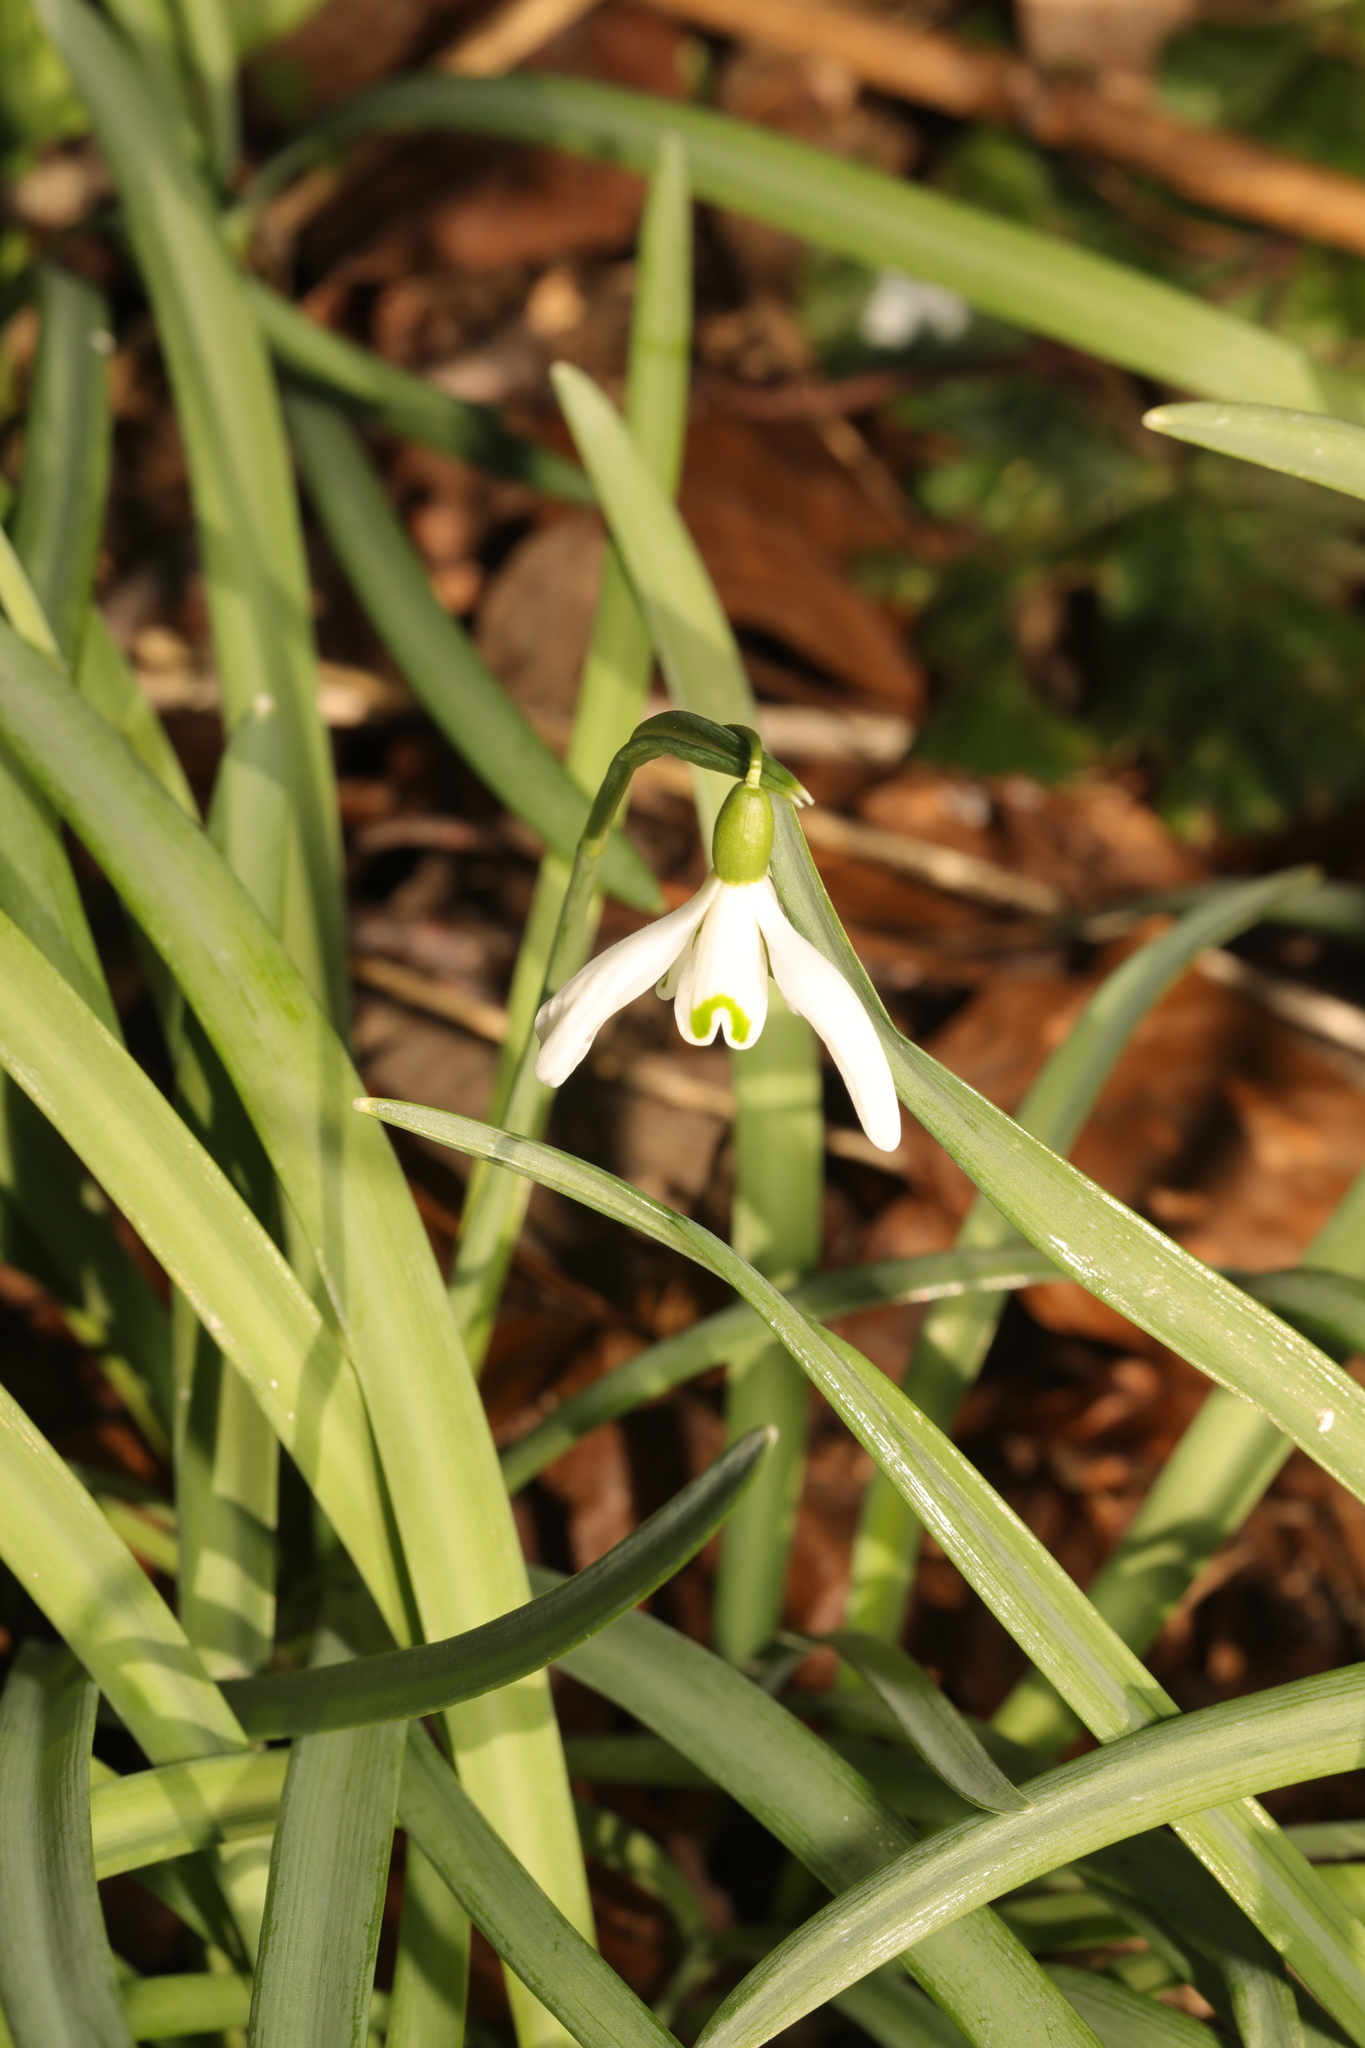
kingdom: Plantae
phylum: Tracheophyta
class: Liliopsida
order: Asparagales
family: Amaryllidaceae
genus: Galanthus
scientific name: Galanthus nivalis
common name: Snowdrop
